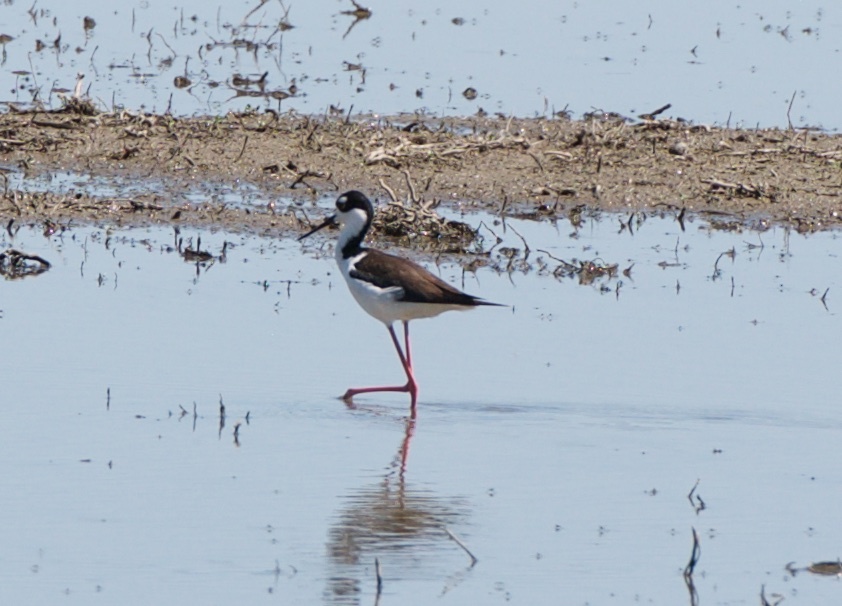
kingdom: Animalia
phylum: Chordata
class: Aves
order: Charadriiformes
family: Recurvirostridae
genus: Himantopus
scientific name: Himantopus mexicanus
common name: Black-necked stilt
